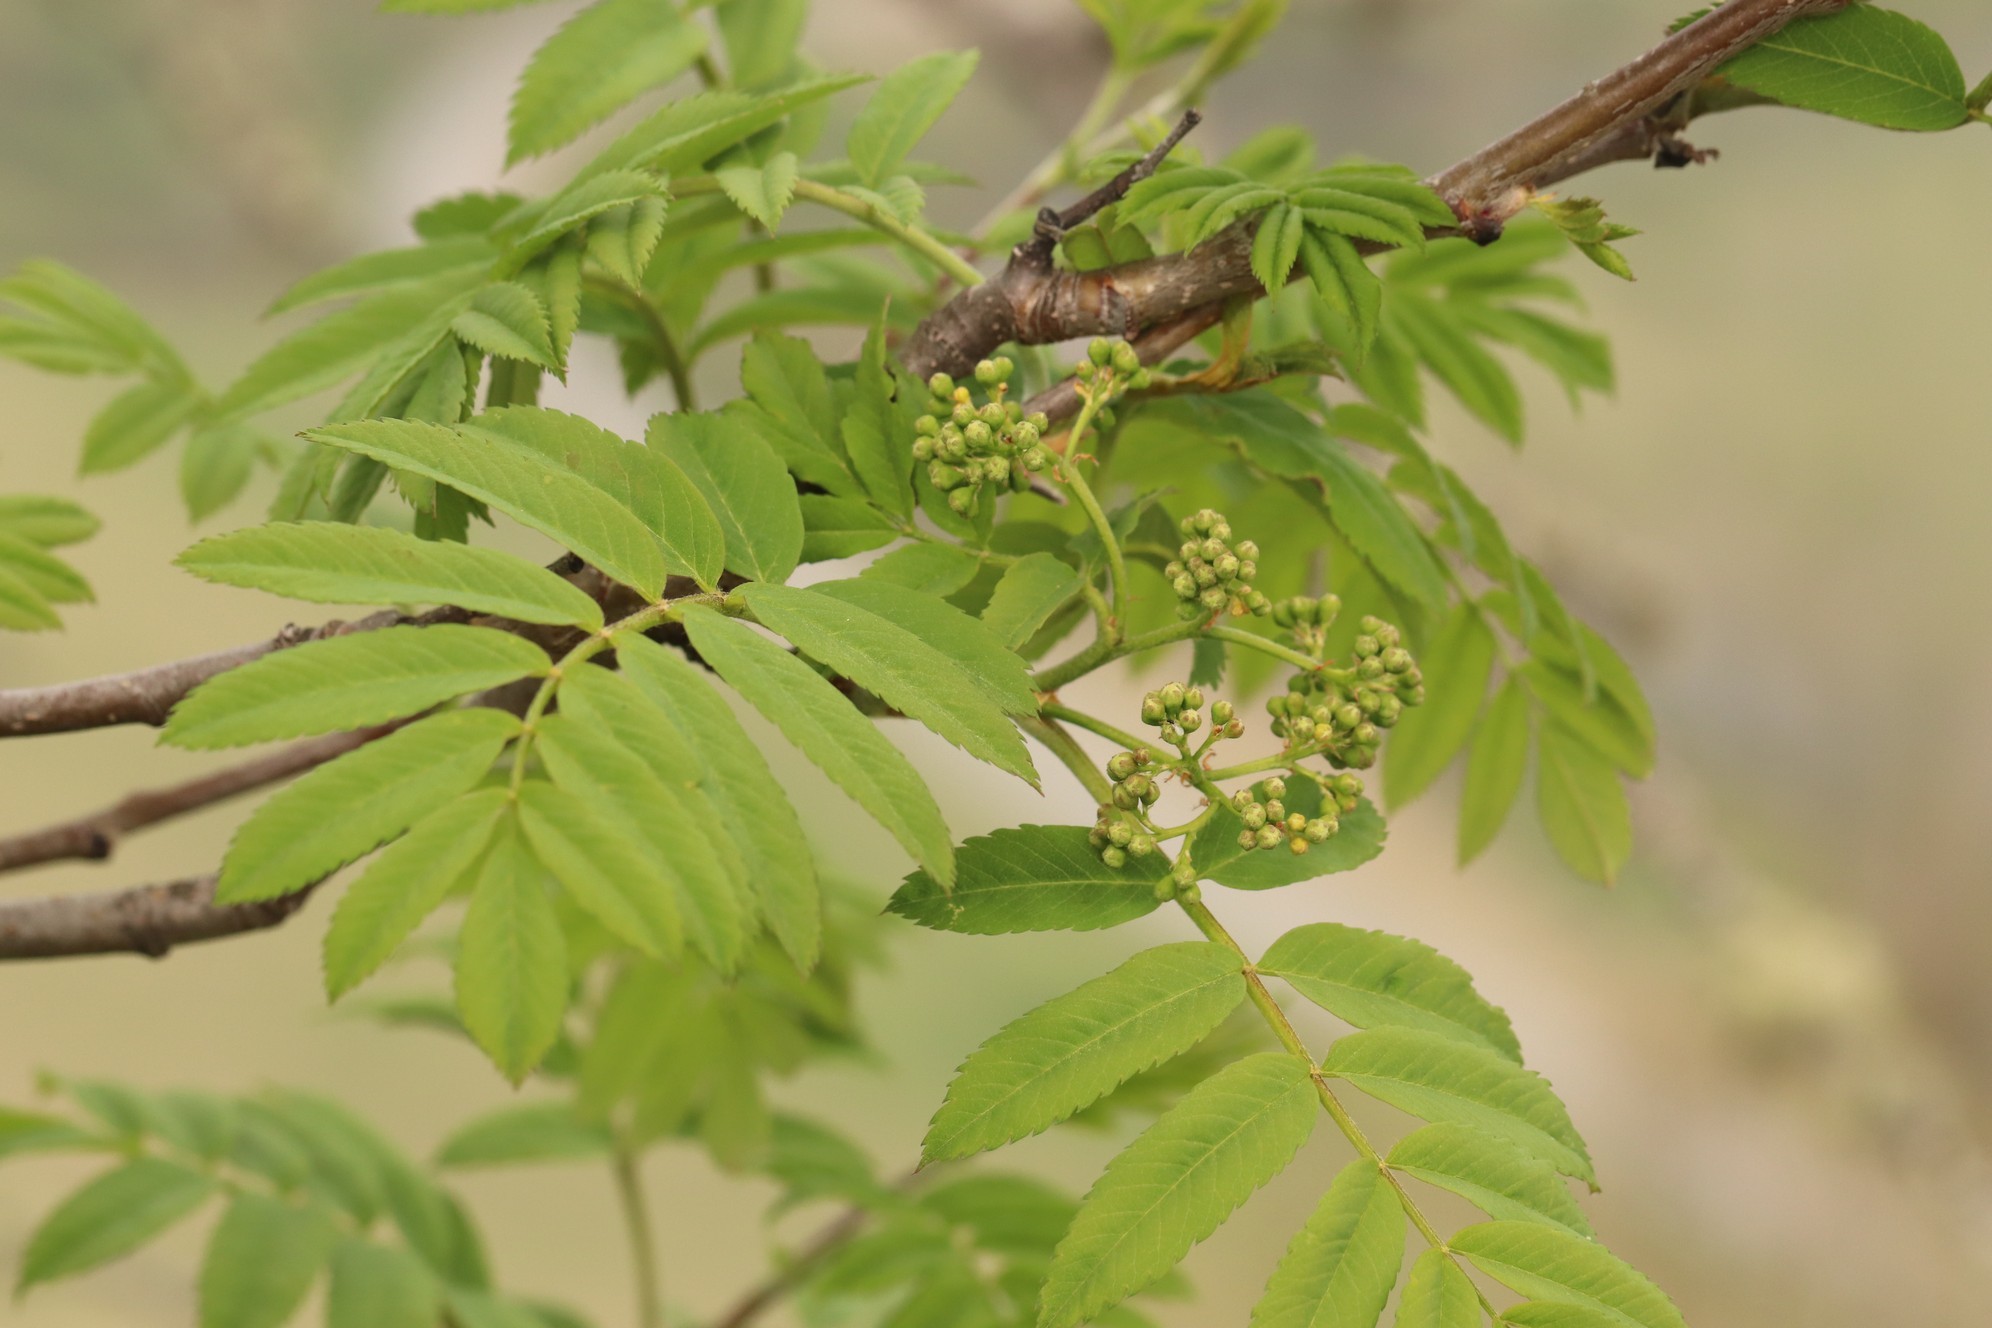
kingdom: Plantae
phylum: Tracheophyta
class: Magnoliopsida
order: Rosales
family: Rosaceae
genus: Sorbus
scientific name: Sorbus aucuparia
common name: Rowan
